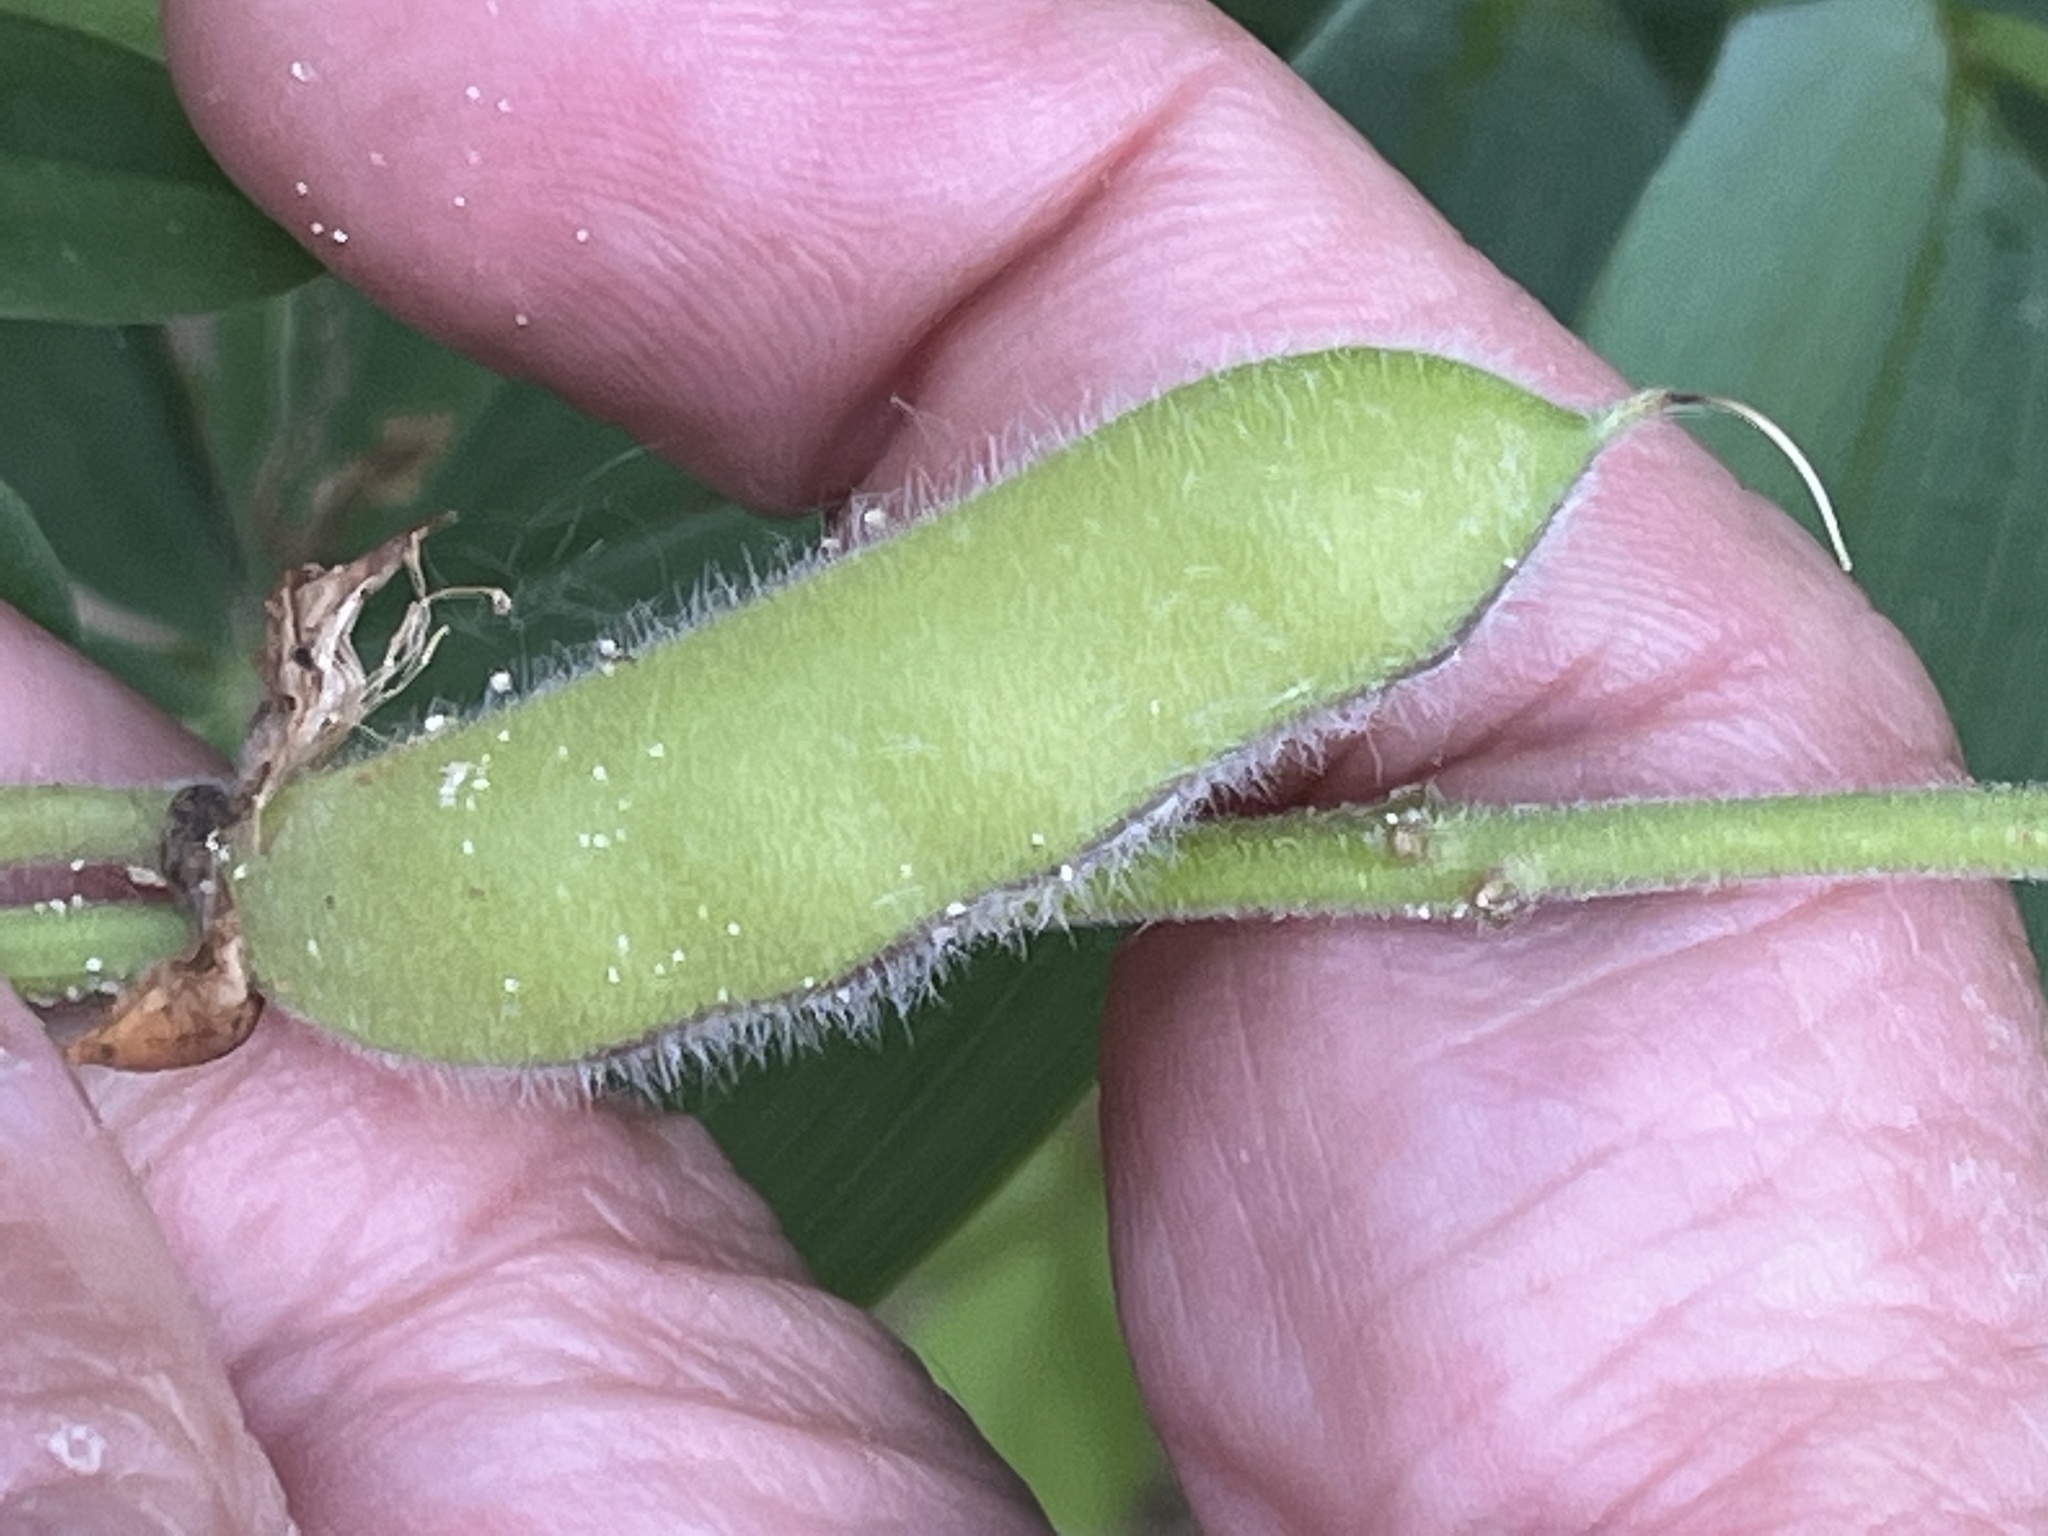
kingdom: Plantae
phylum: Tracheophyta
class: Magnoliopsida
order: Fabales
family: Fabaceae
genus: Lupinus
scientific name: Lupinus perennis
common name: Sundial lupine
